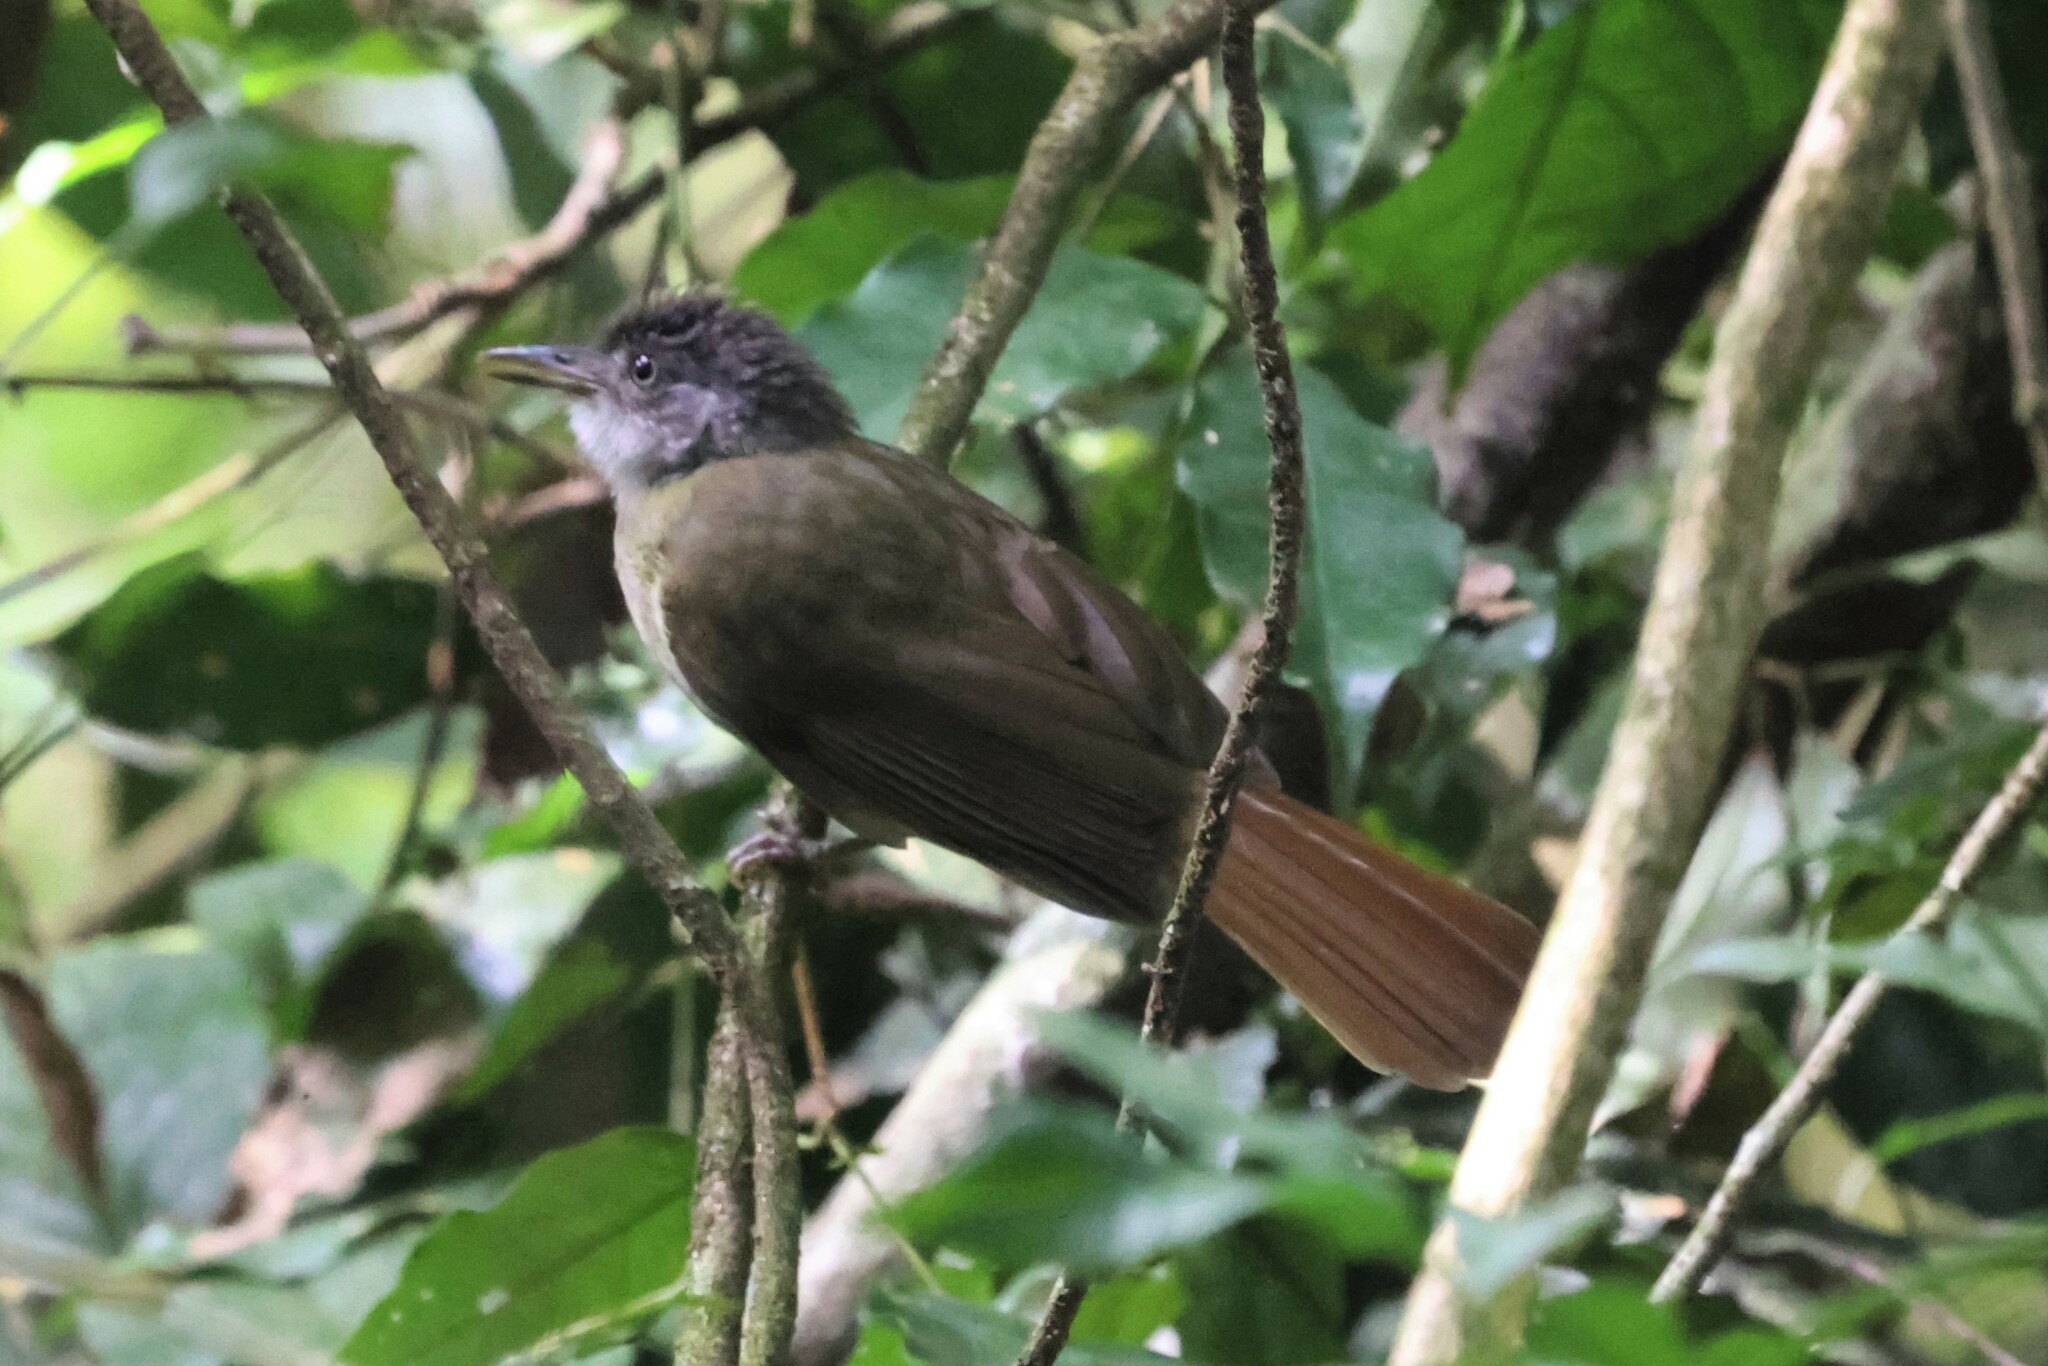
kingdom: Animalia
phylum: Chordata
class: Aves
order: Passeriformes
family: Pycnonotidae
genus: Phyllastrephus
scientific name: Phyllastrephus albigularis
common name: White-throated greenbul
